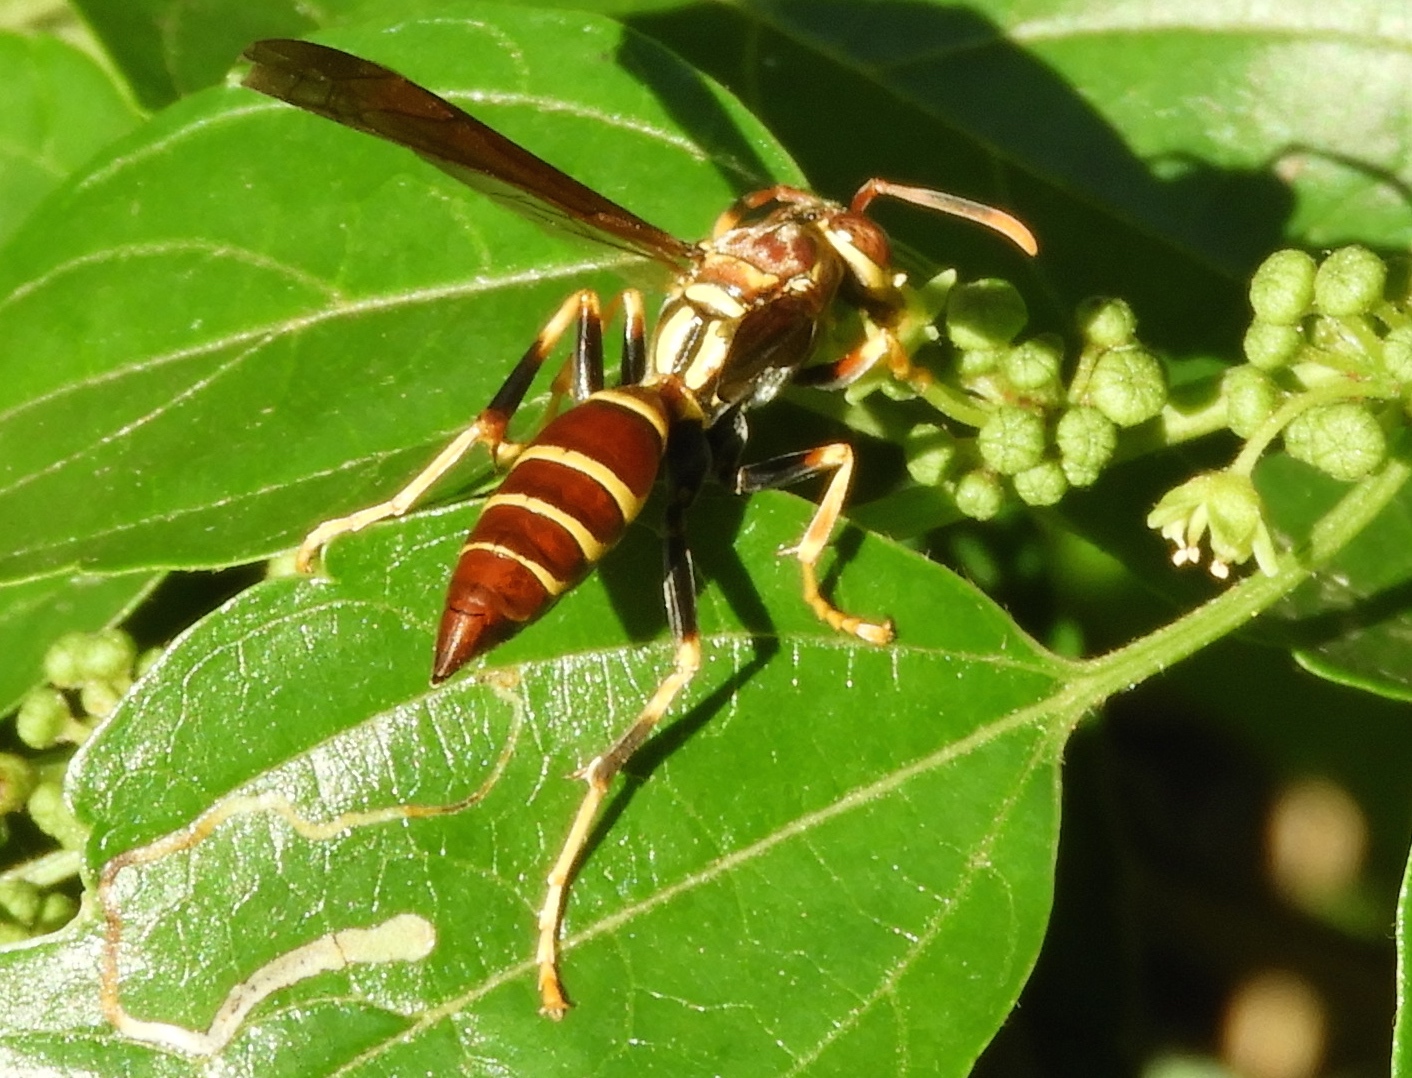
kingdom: Animalia
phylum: Arthropoda
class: Insecta
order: Hymenoptera
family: Eumenidae
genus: Polistes
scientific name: Polistes instabilis
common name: Unstable paper wasp
